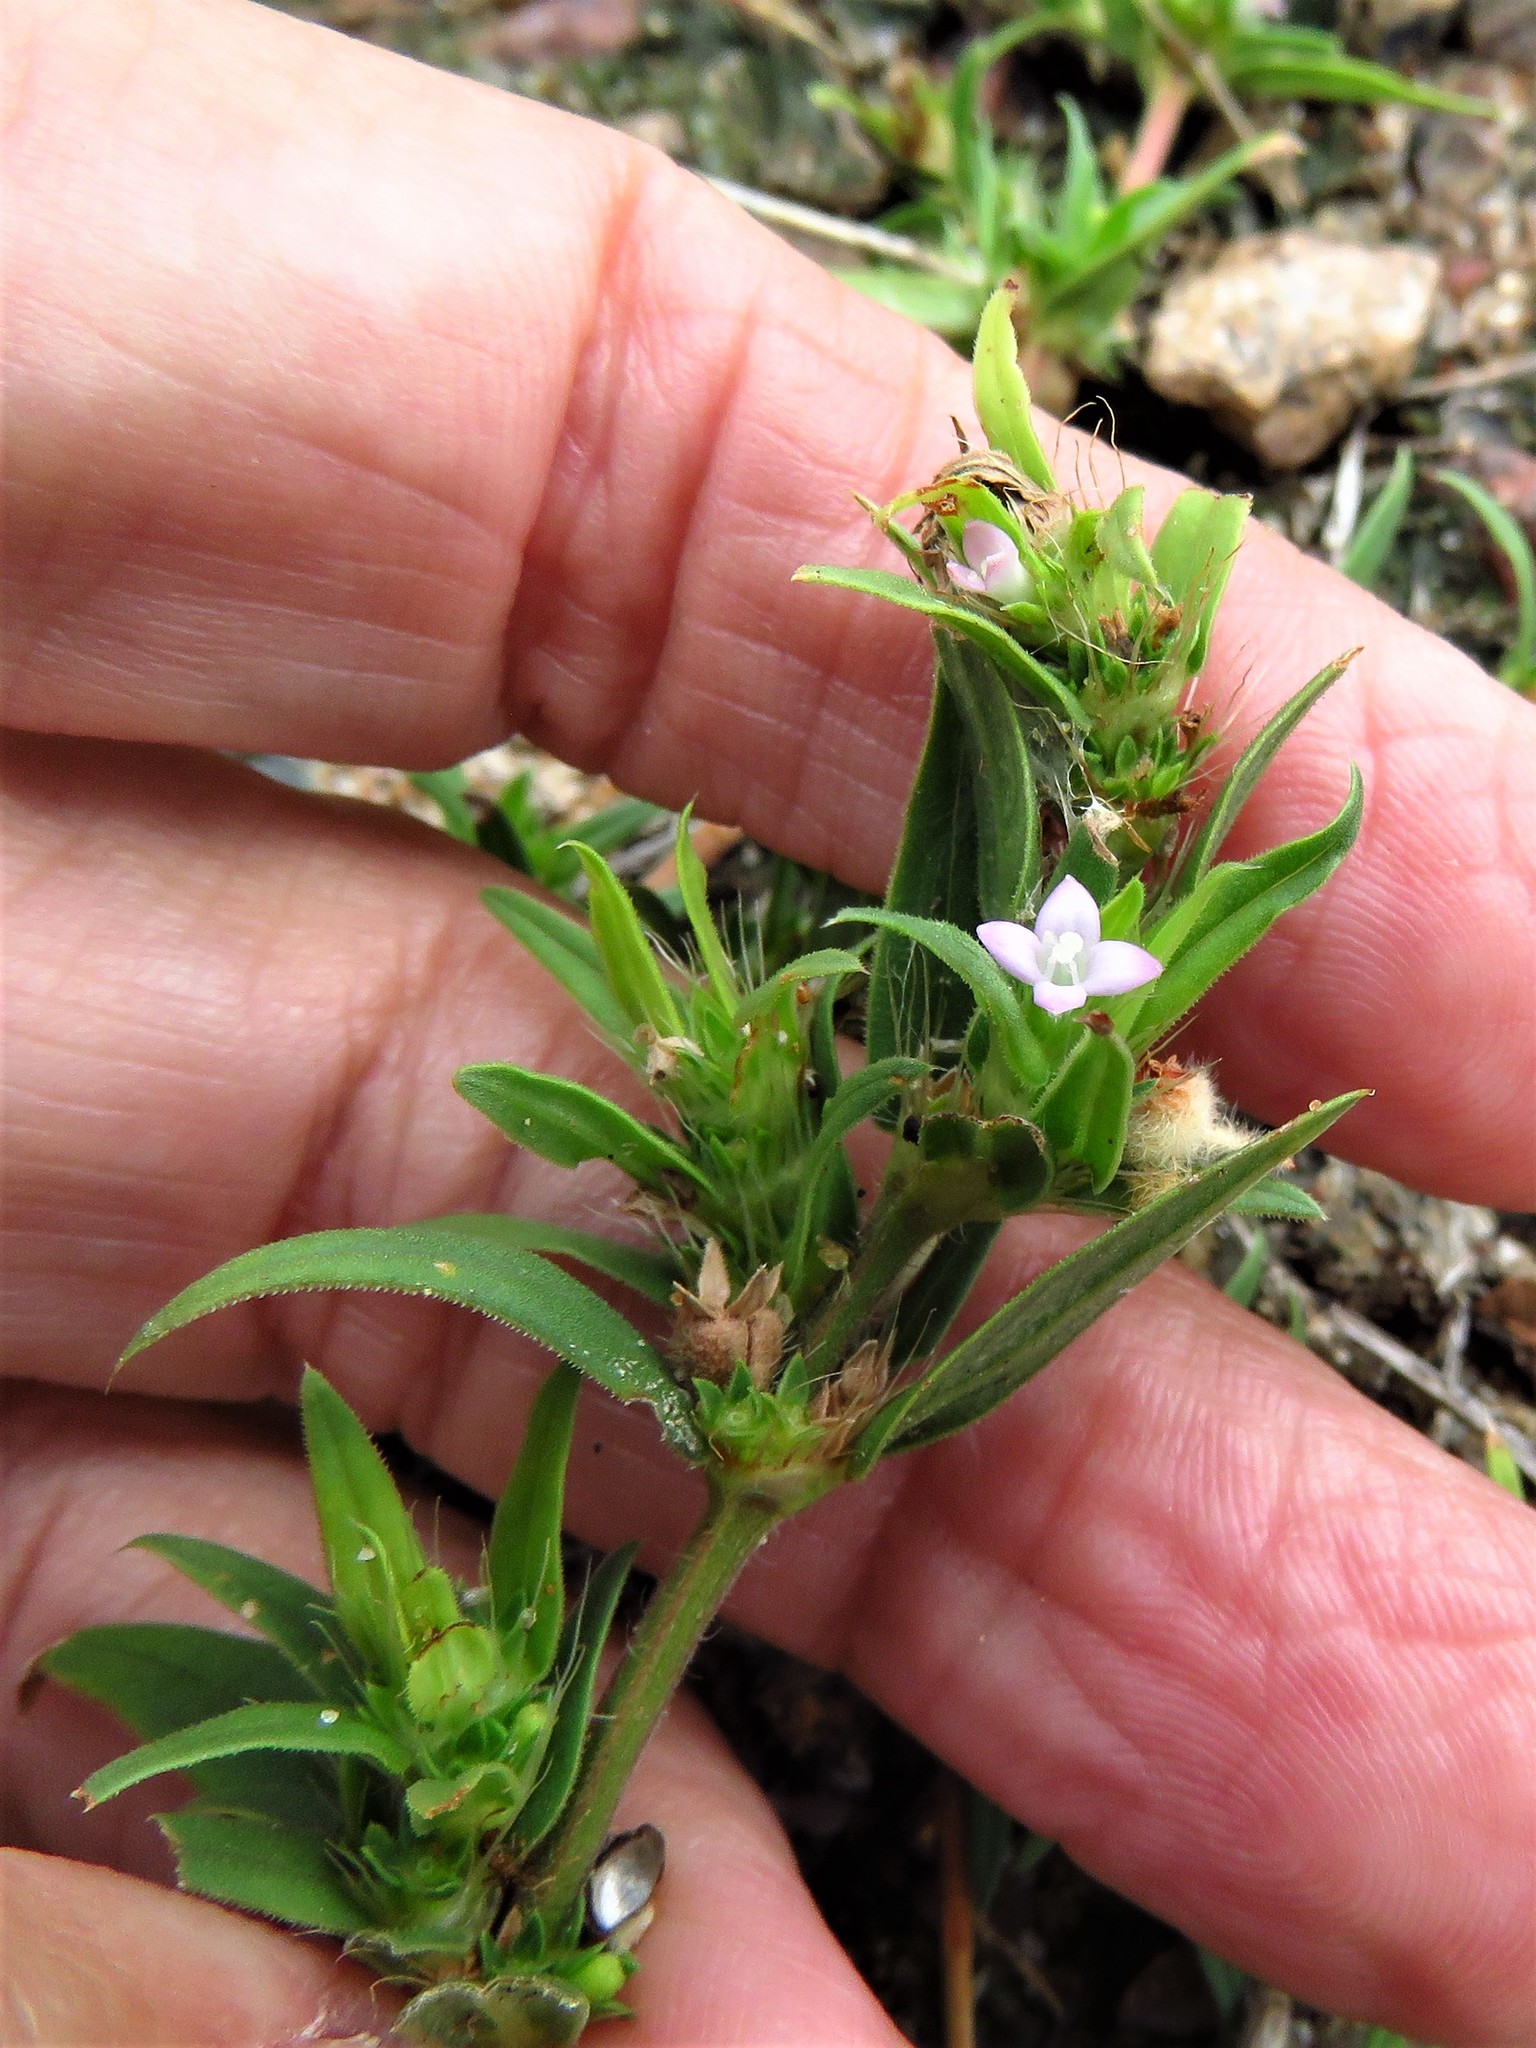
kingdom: Plantae
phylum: Tracheophyta
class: Magnoliopsida
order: Gentianales
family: Rubiaceae
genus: Hexasepalum
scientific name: Hexasepalum teres
